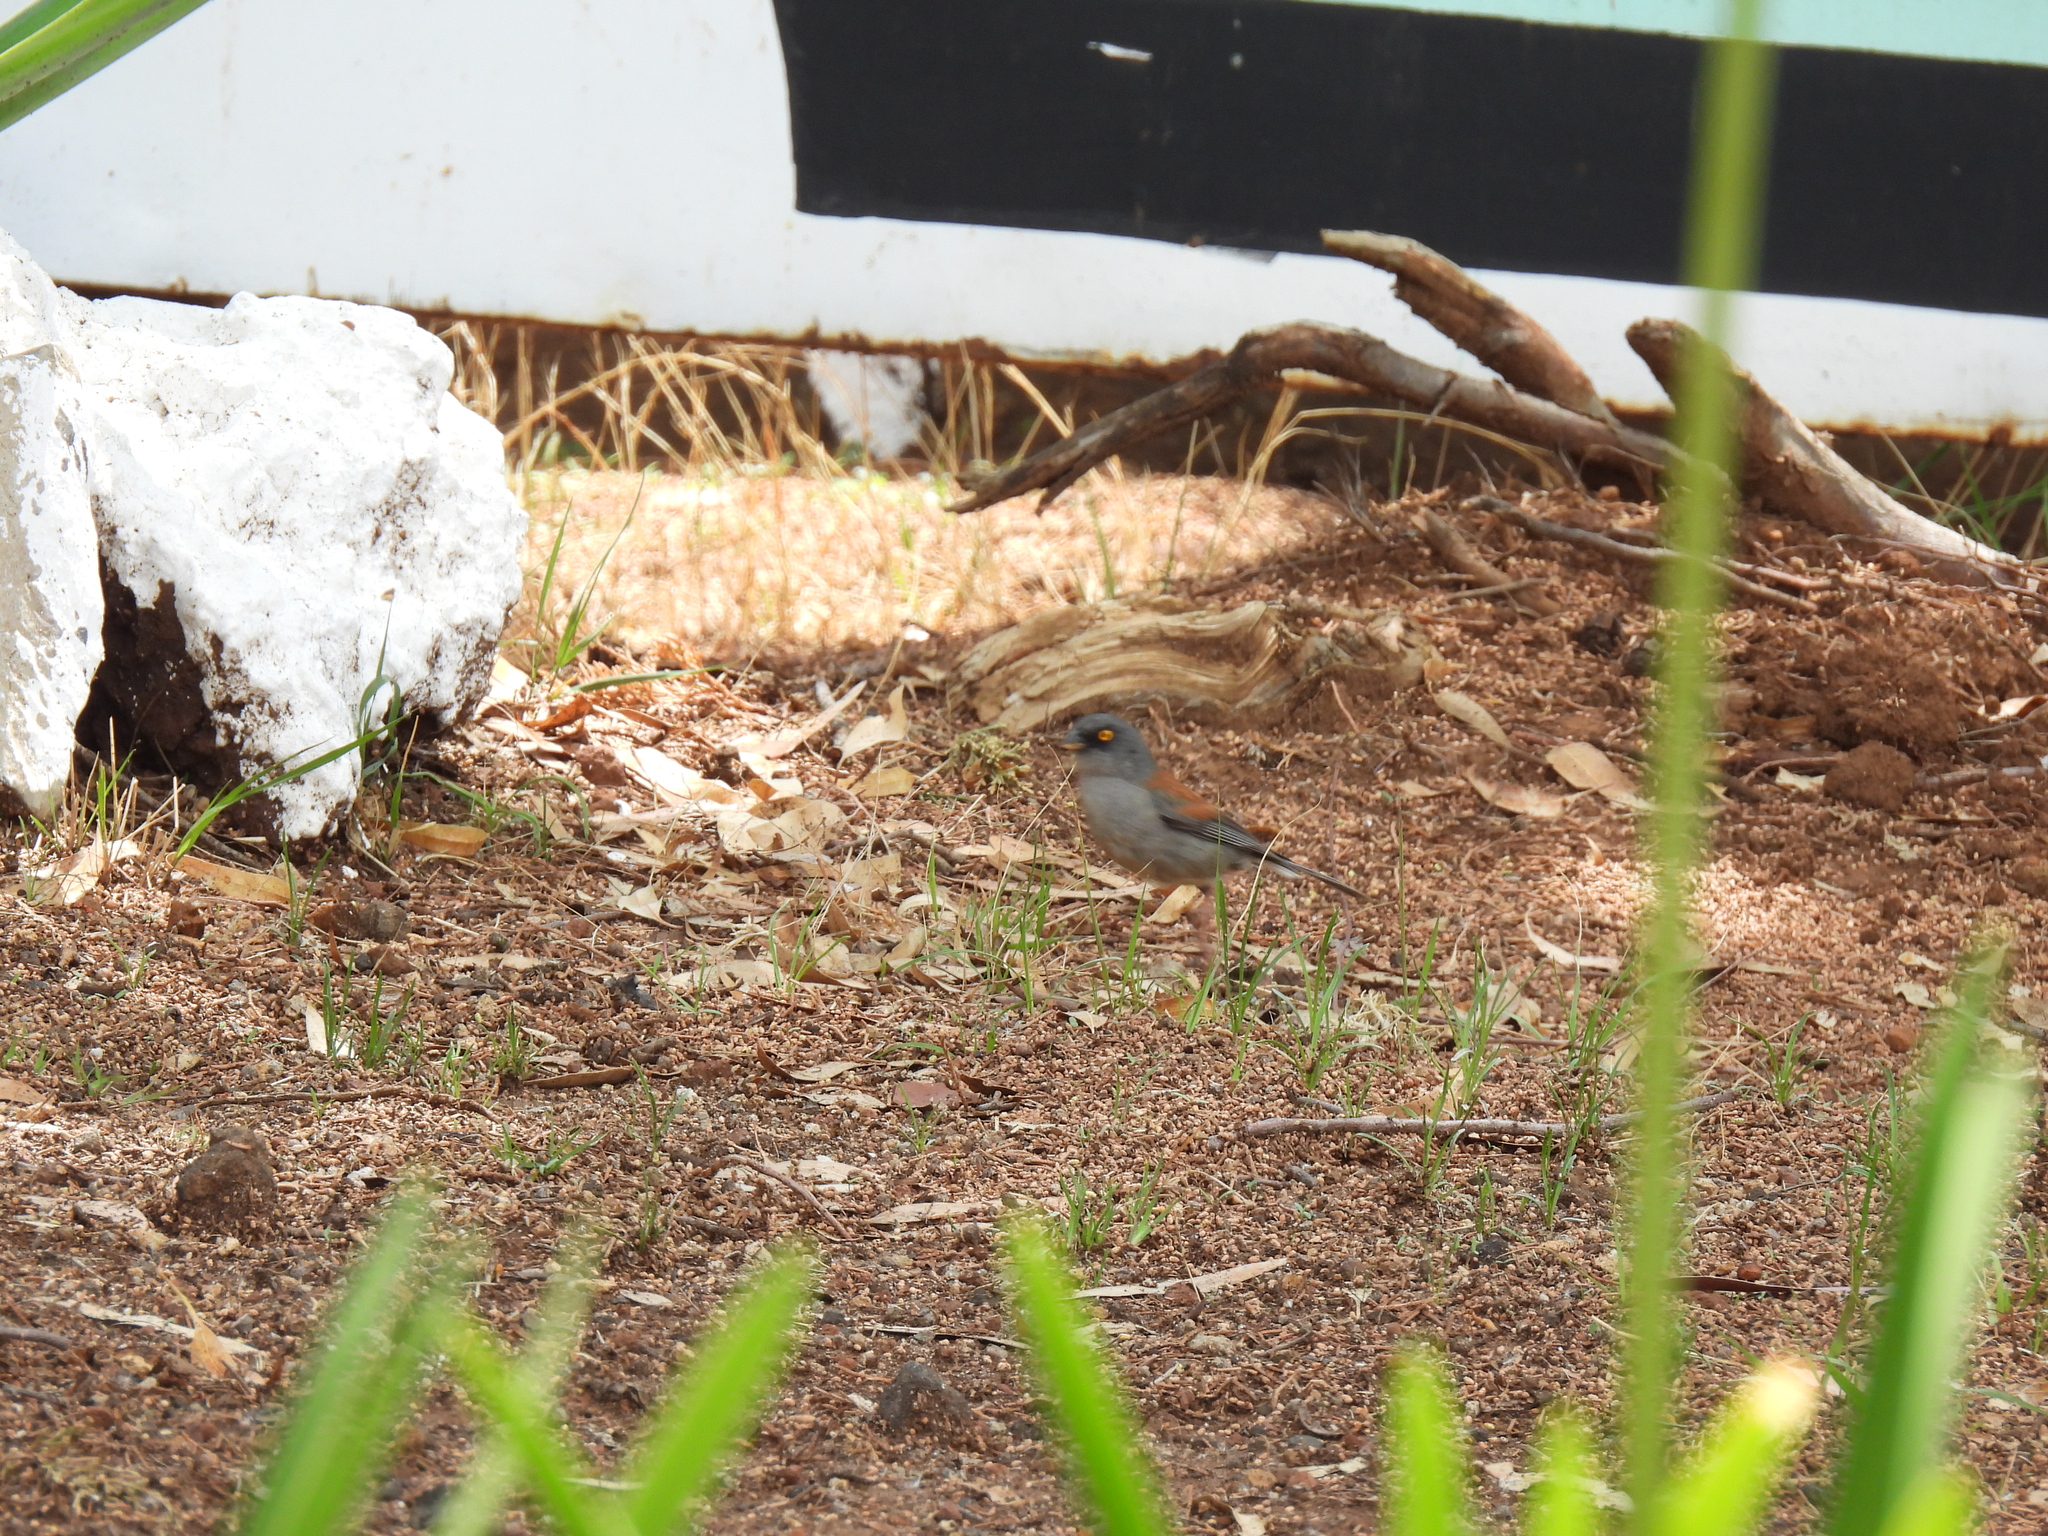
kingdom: Animalia
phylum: Chordata
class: Aves
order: Passeriformes
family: Passerellidae
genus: Junco
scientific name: Junco phaeonotus
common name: Yellow-eyed junco
